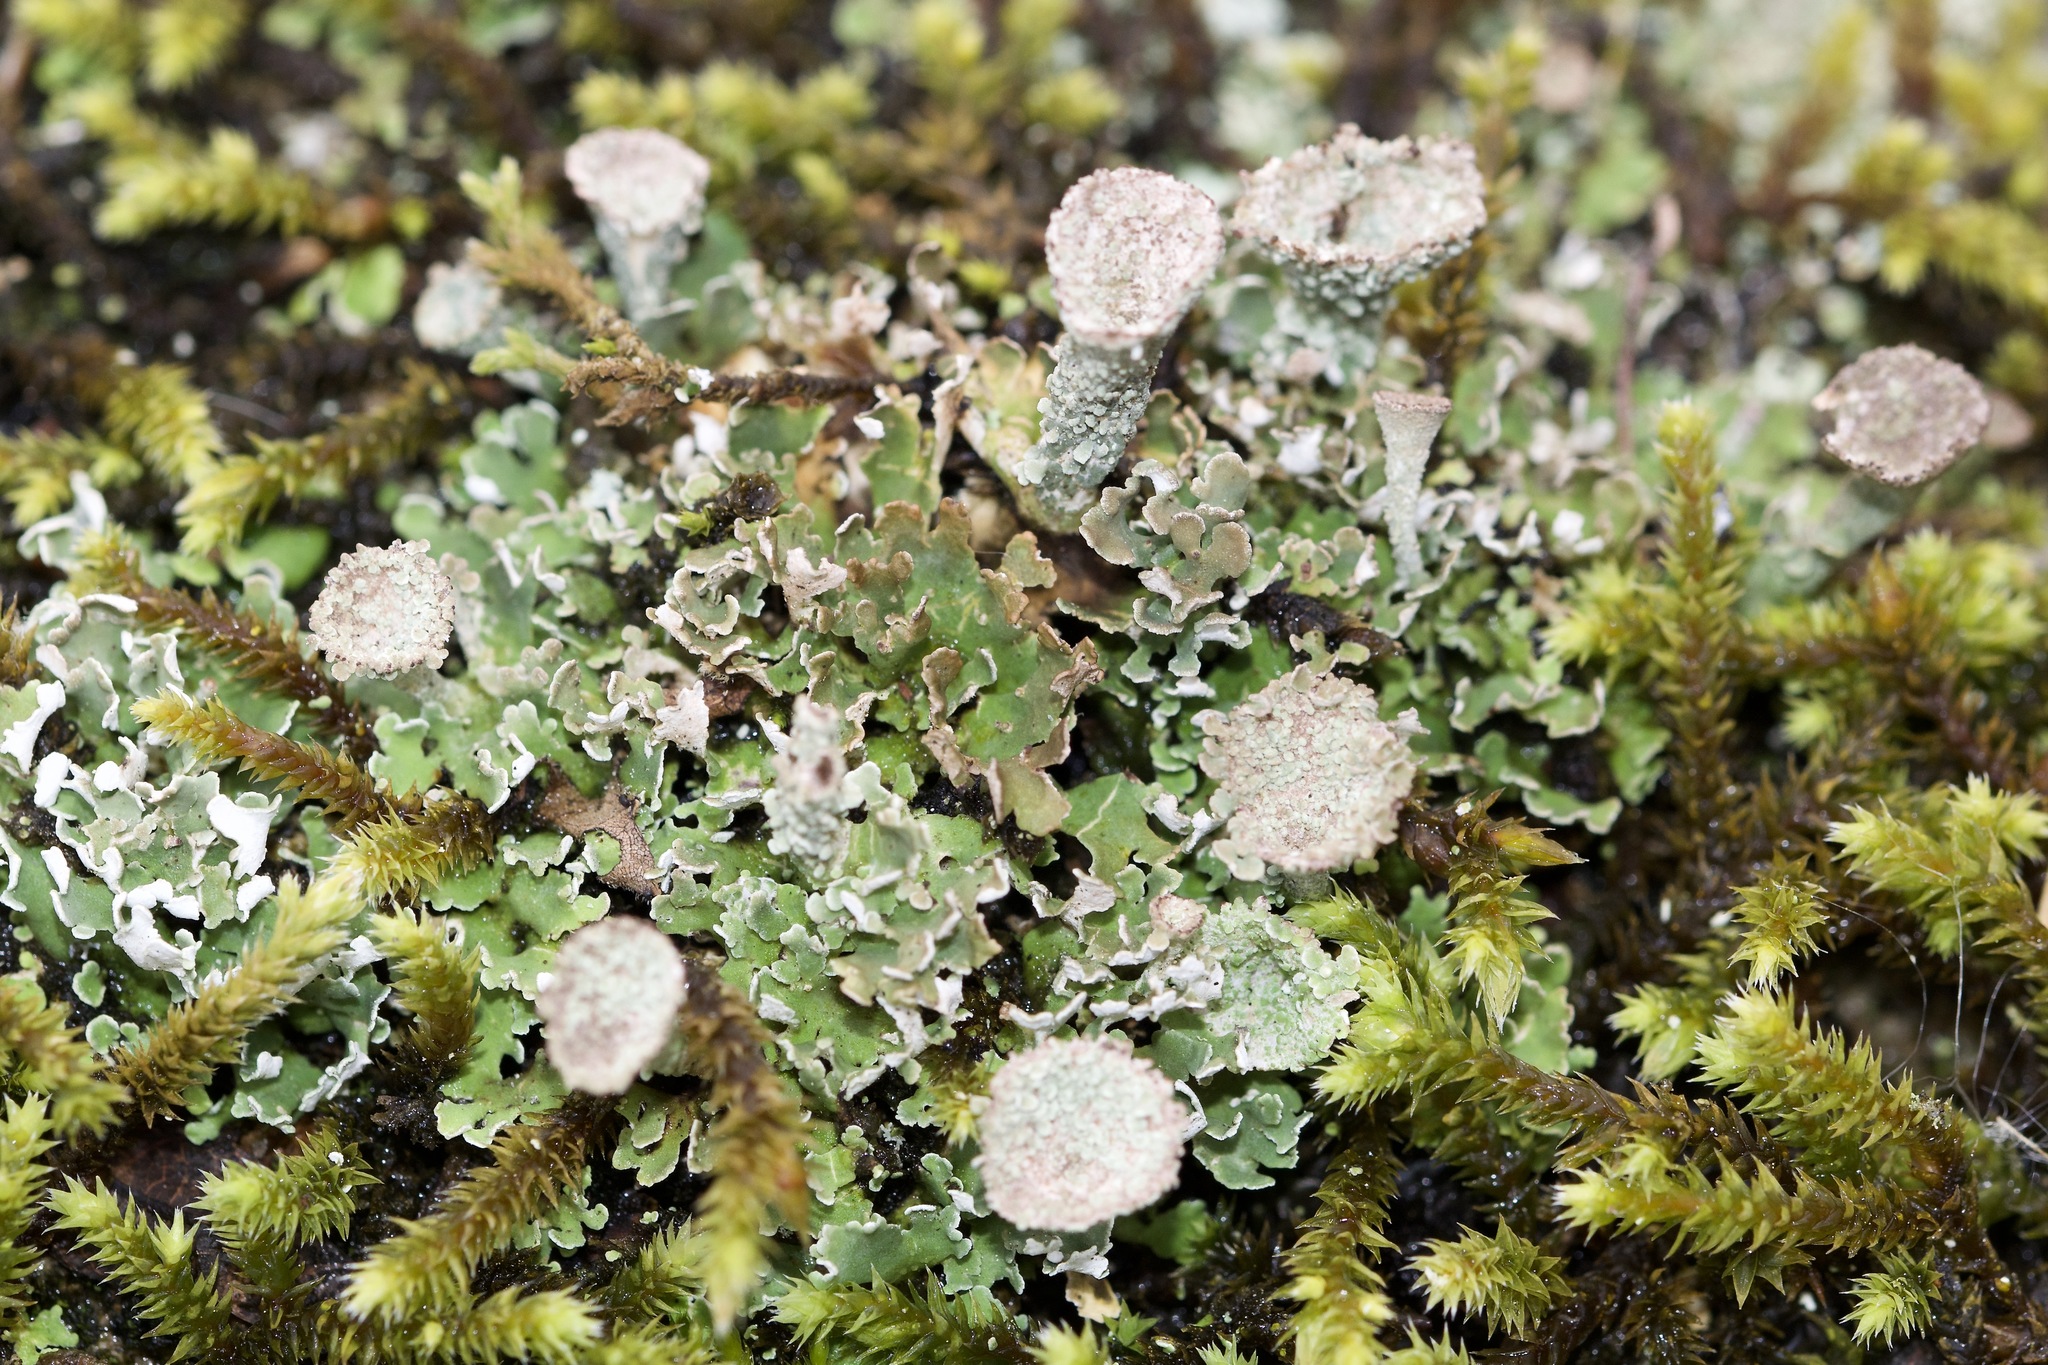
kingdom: Fungi
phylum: Ascomycota
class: Lecanoromycetes
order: Lecanorales
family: Cladoniaceae
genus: Cladonia
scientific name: Cladonia pocillum
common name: Rosette pixie-cup lichen
